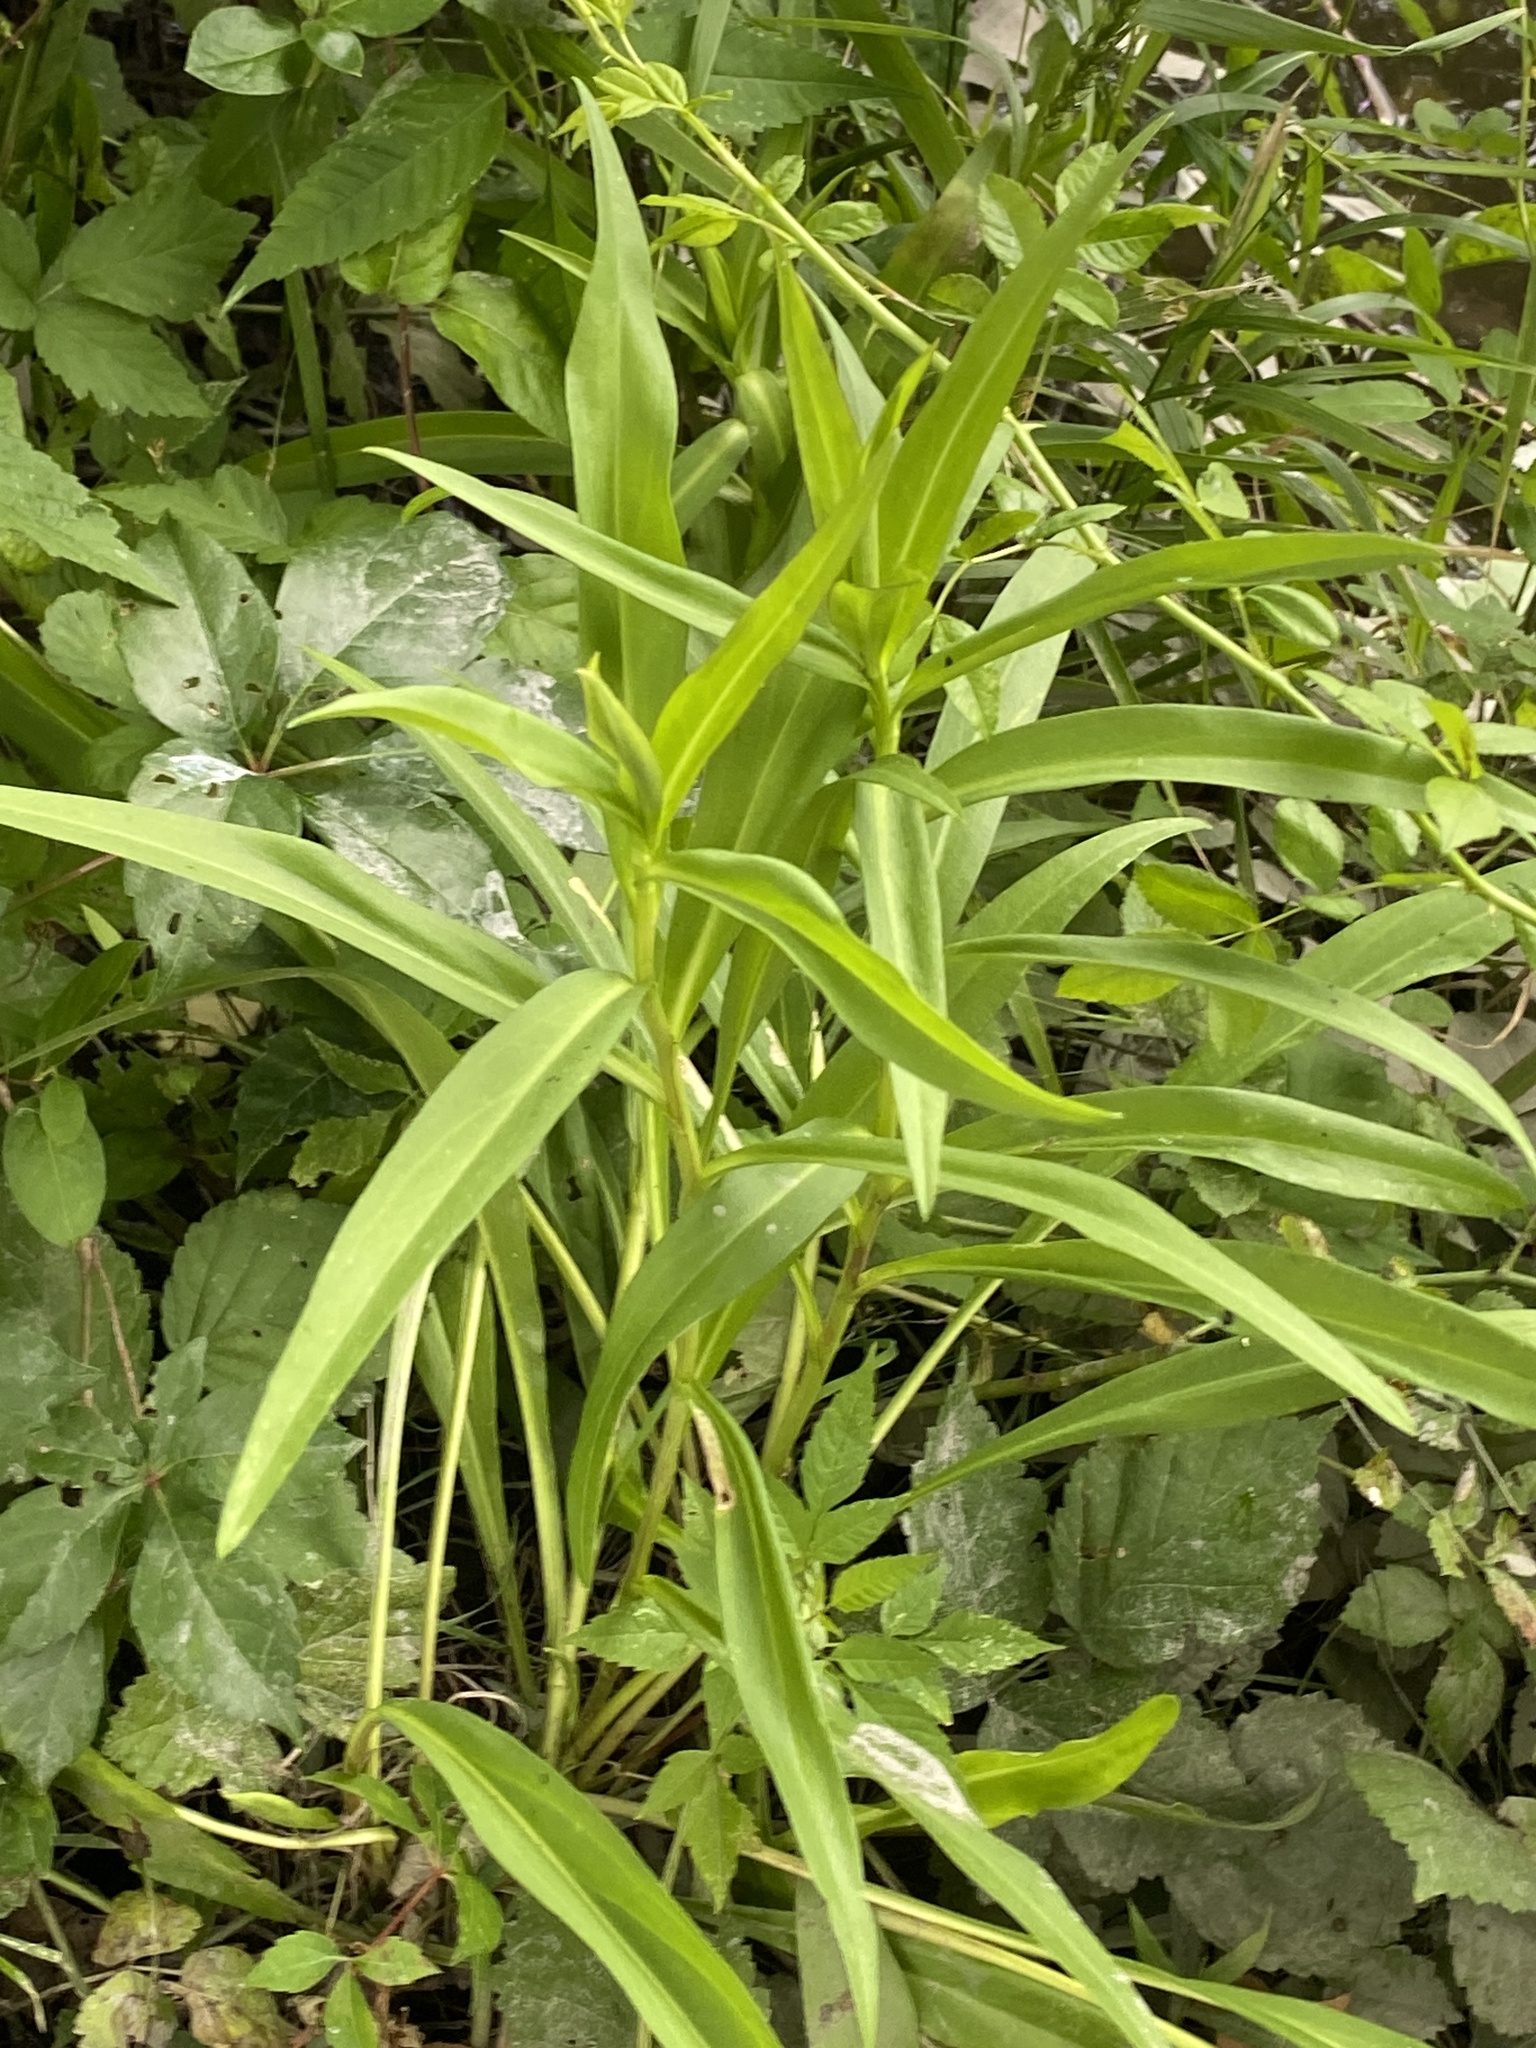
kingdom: Plantae
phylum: Tracheophyta
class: Magnoliopsida
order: Asterales
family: Asteraceae
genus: Solidago
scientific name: Solidago sempervirens
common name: Salt-marsh goldenrod
